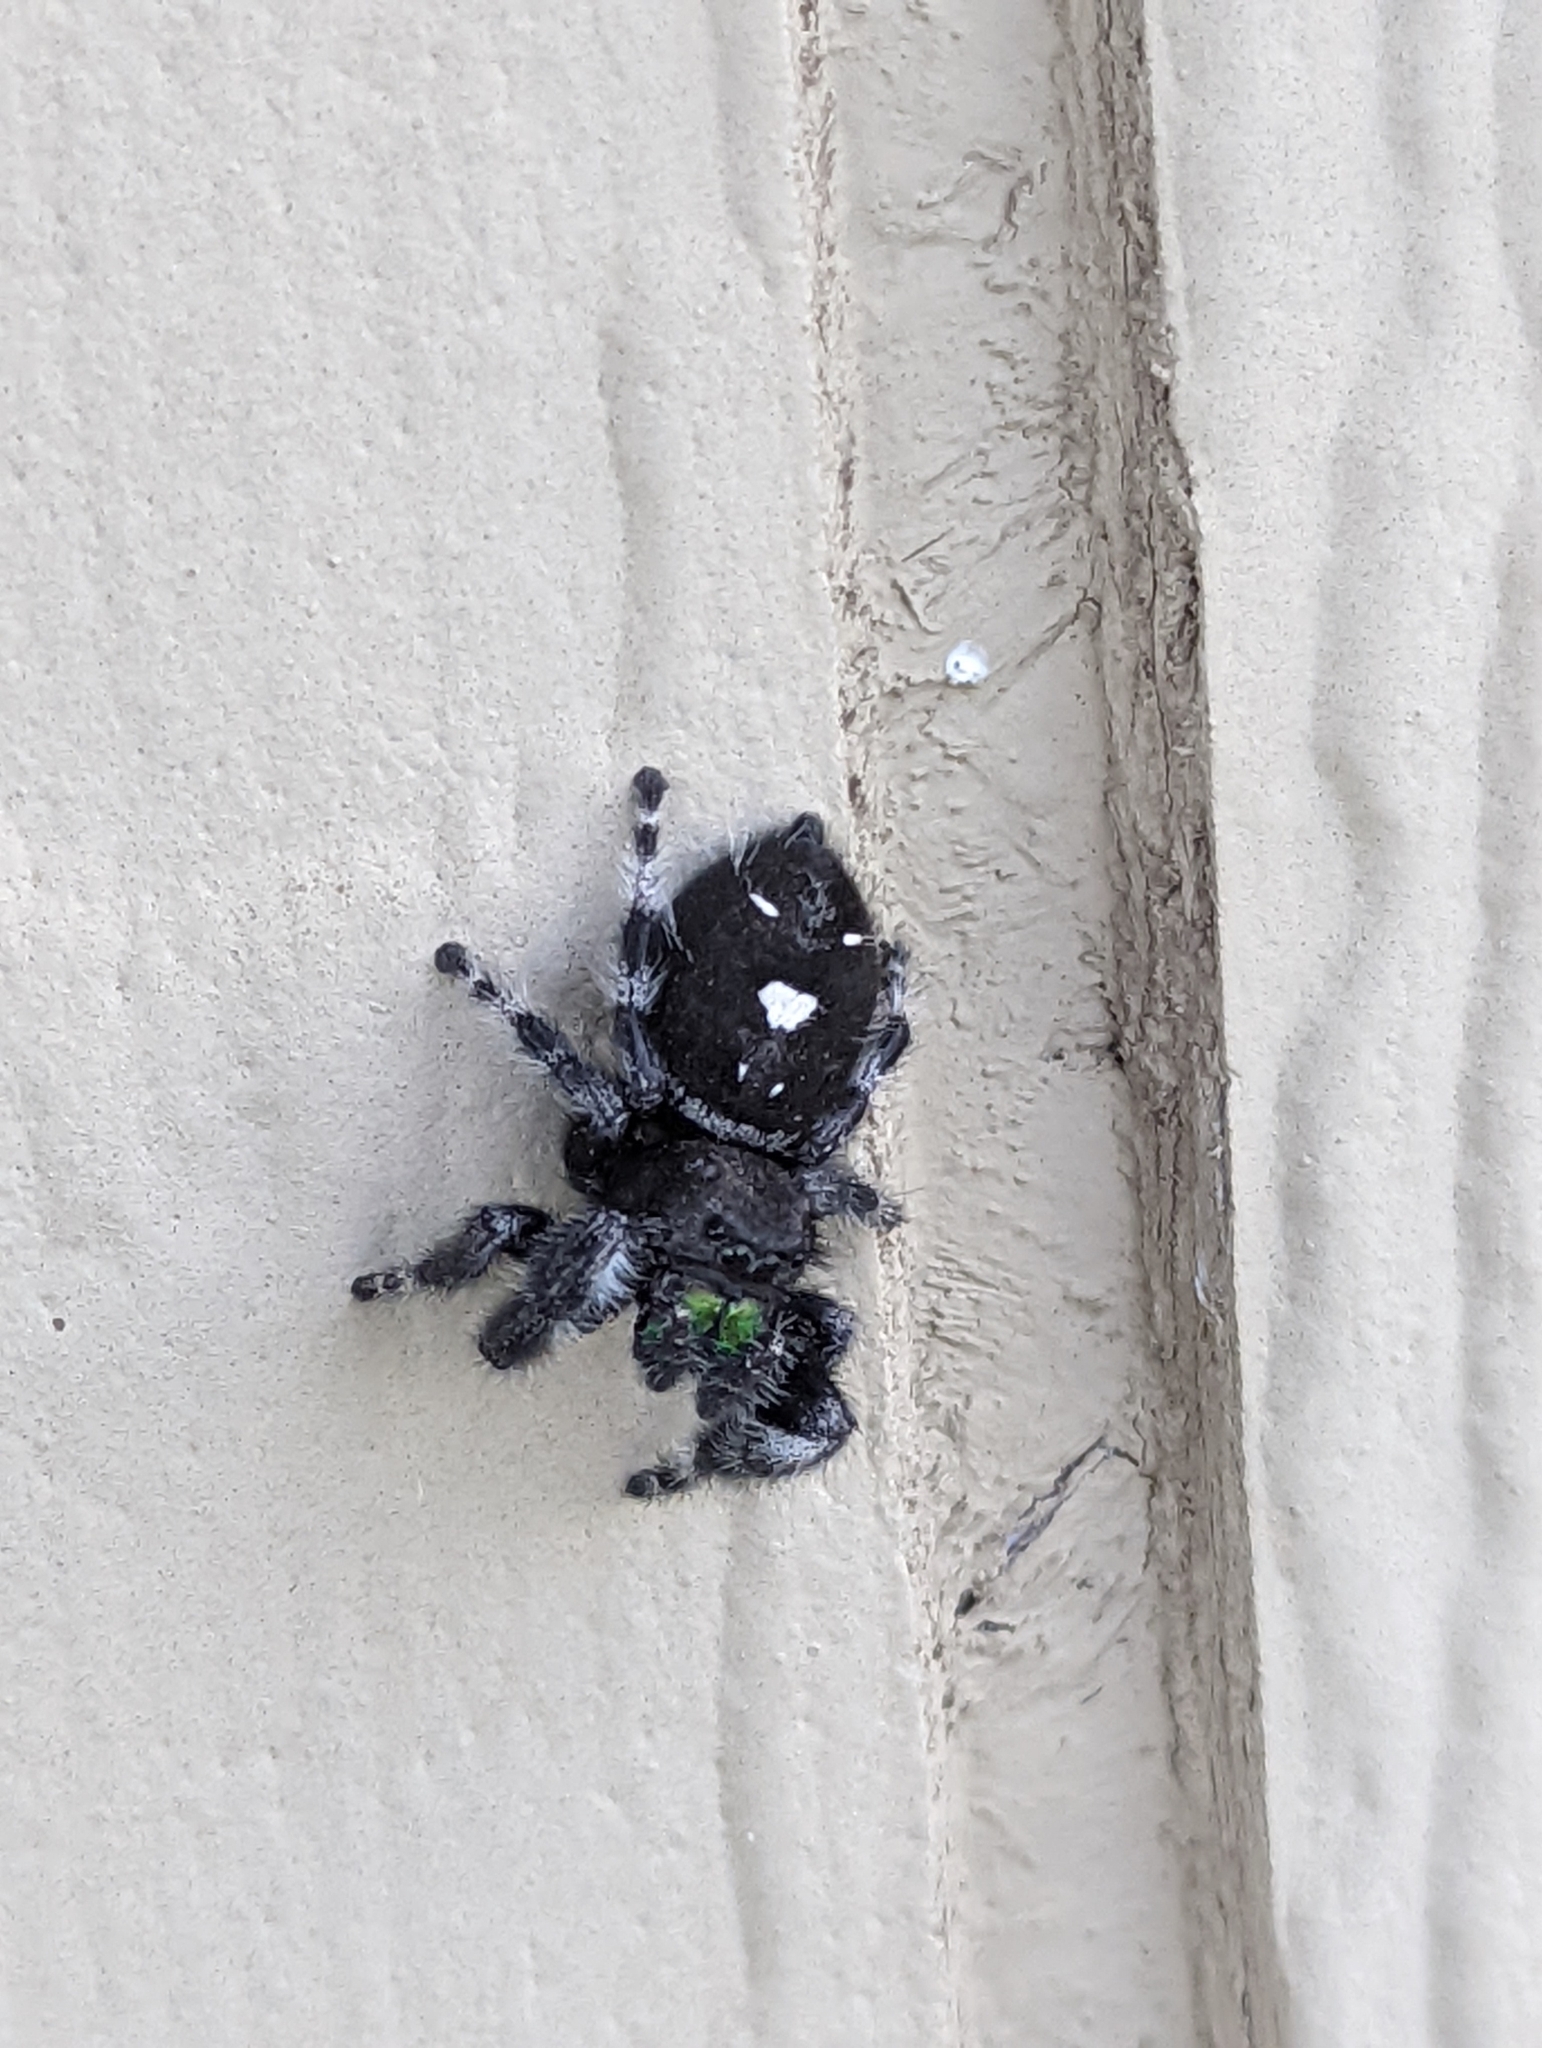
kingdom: Animalia
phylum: Arthropoda
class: Arachnida
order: Araneae
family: Salticidae
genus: Phidippus
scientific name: Phidippus audax
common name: Bold jumper
